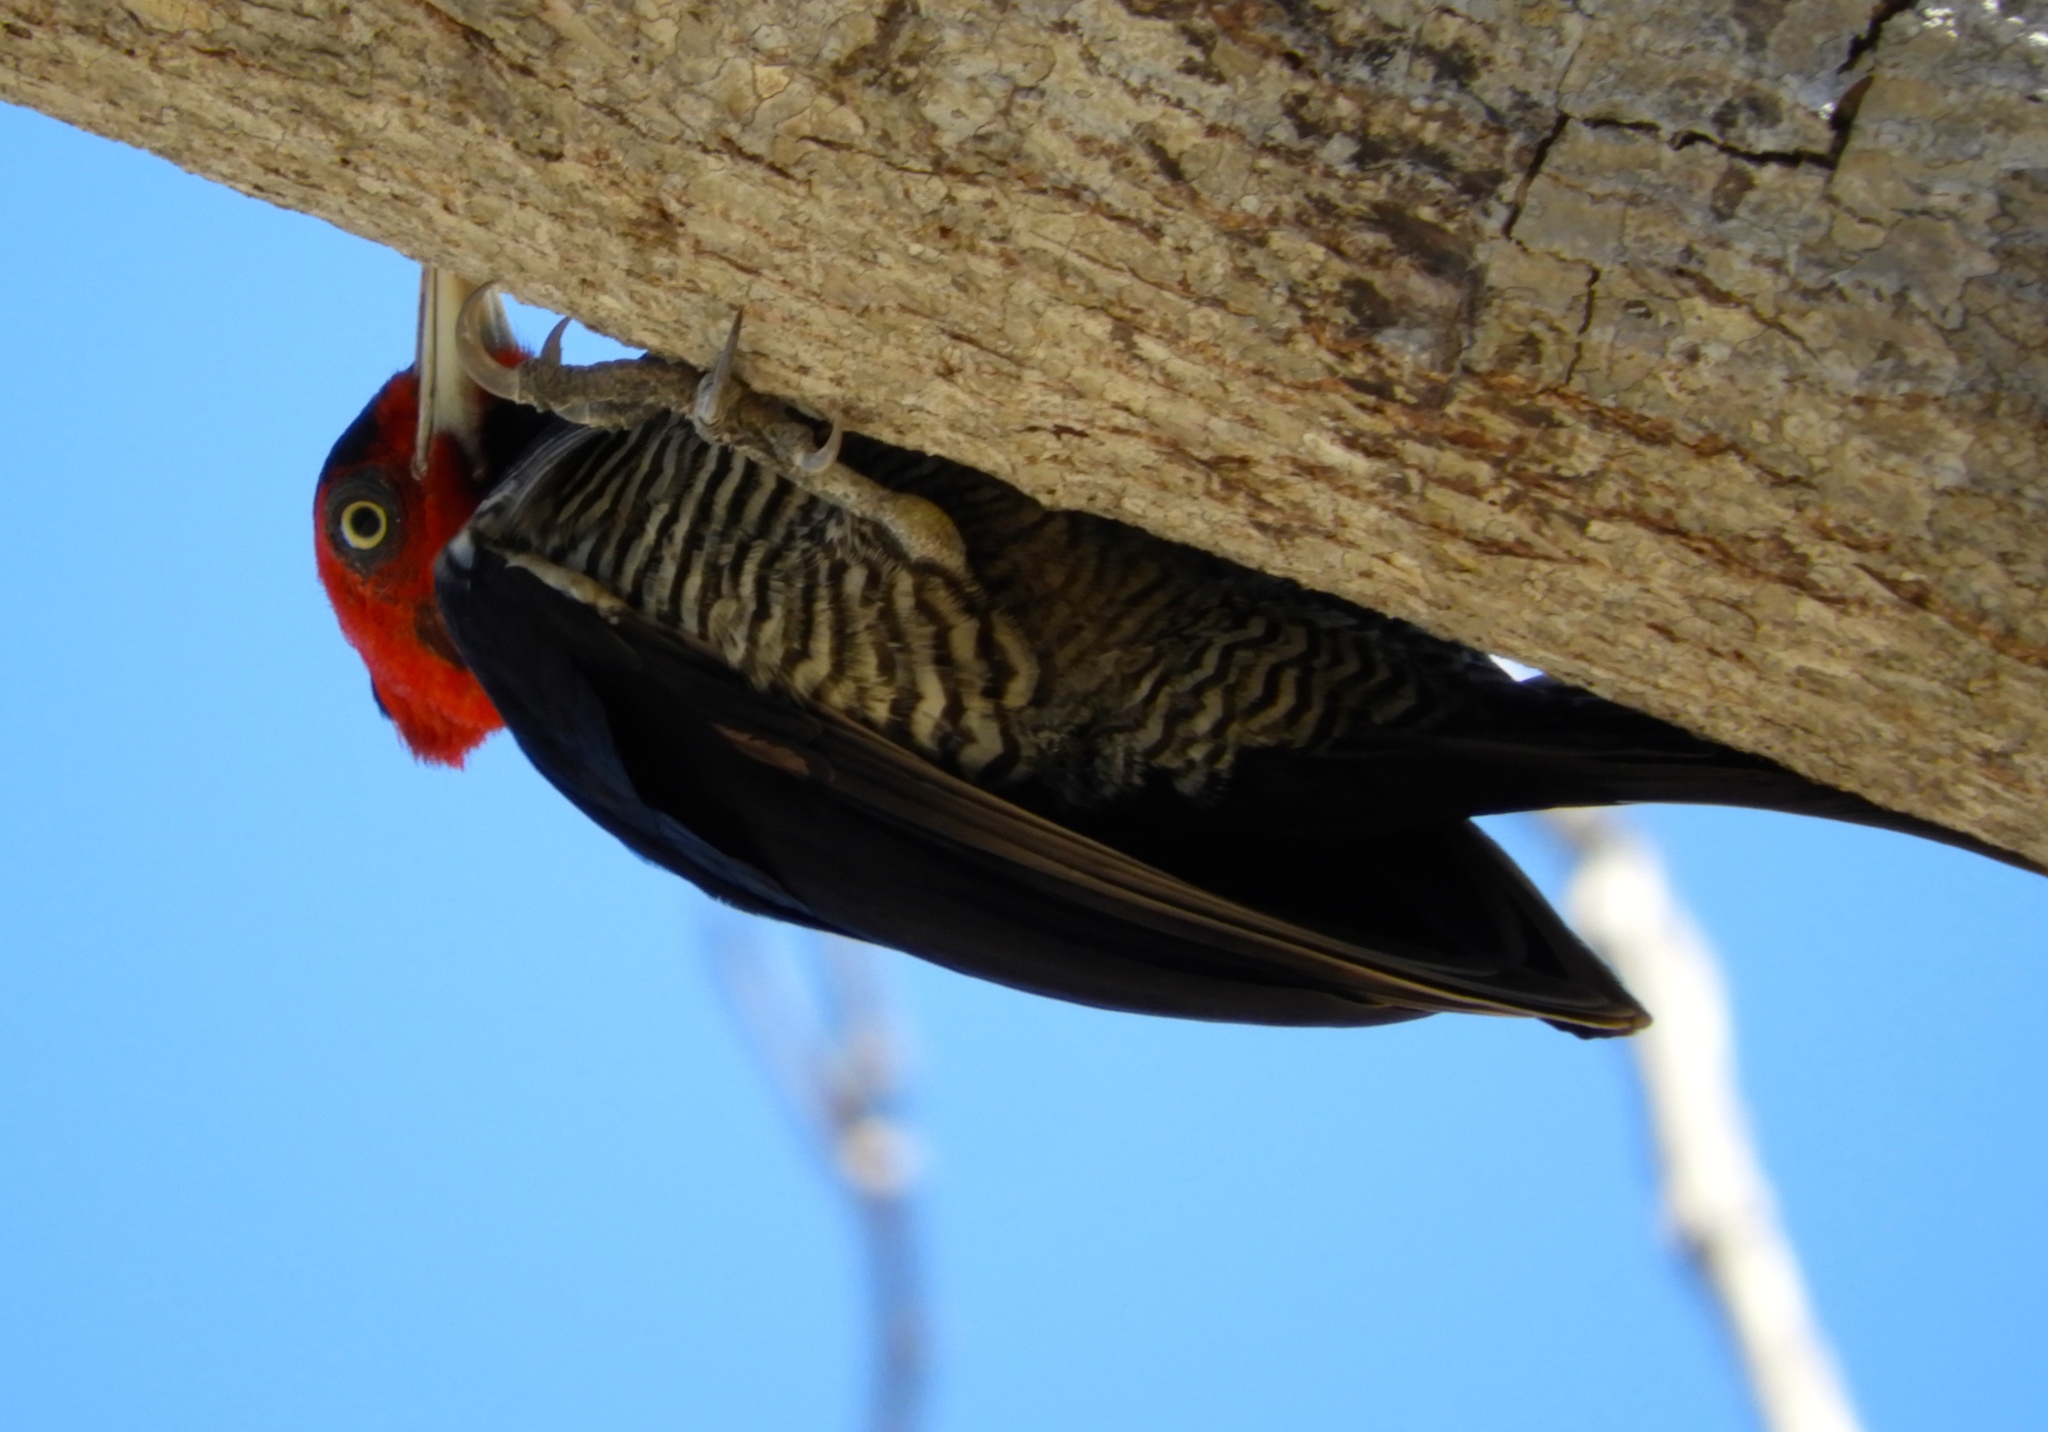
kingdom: Animalia
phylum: Chordata
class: Aves
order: Piciformes
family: Picidae
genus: Campephilus
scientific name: Campephilus guatemalensis
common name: Pale-billed woodpecker
